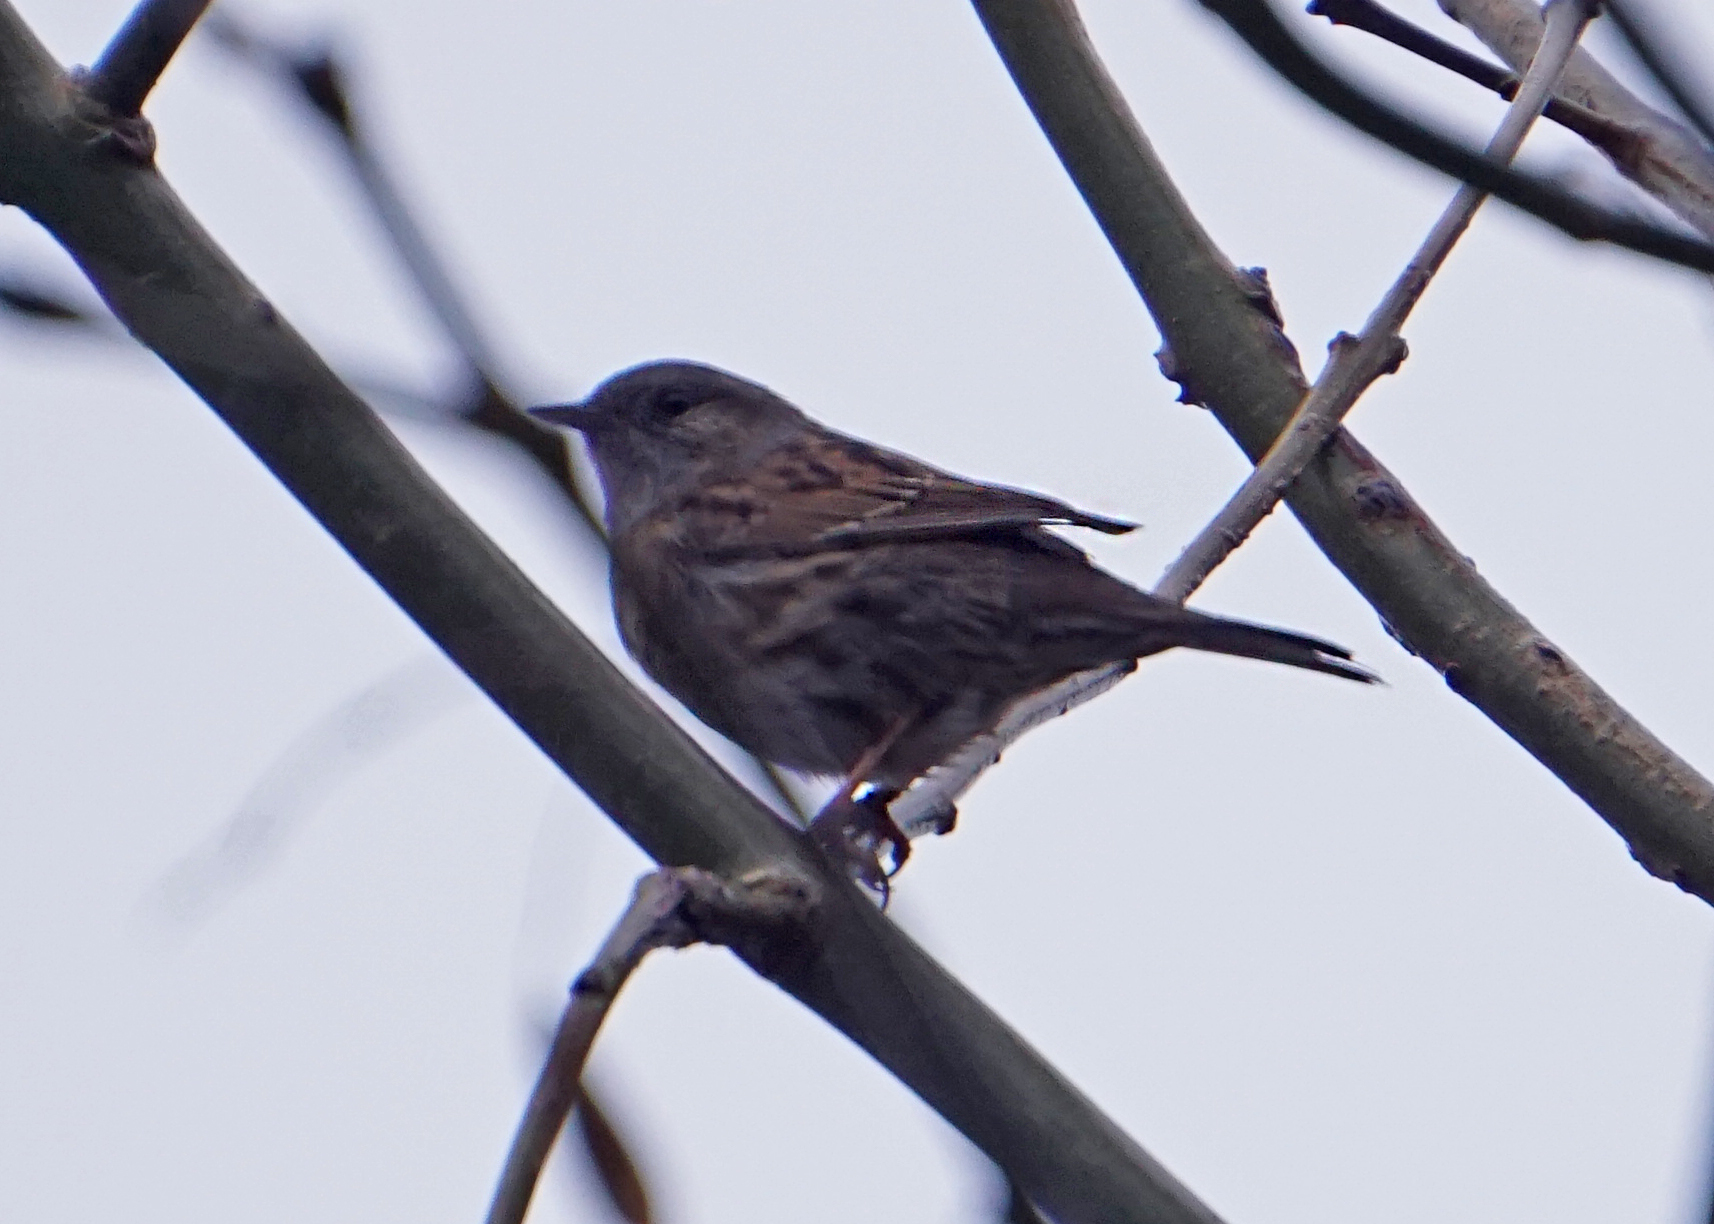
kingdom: Animalia
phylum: Chordata
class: Aves
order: Passeriformes
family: Prunellidae
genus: Prunella
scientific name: Prunella modularis
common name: Dunnock
